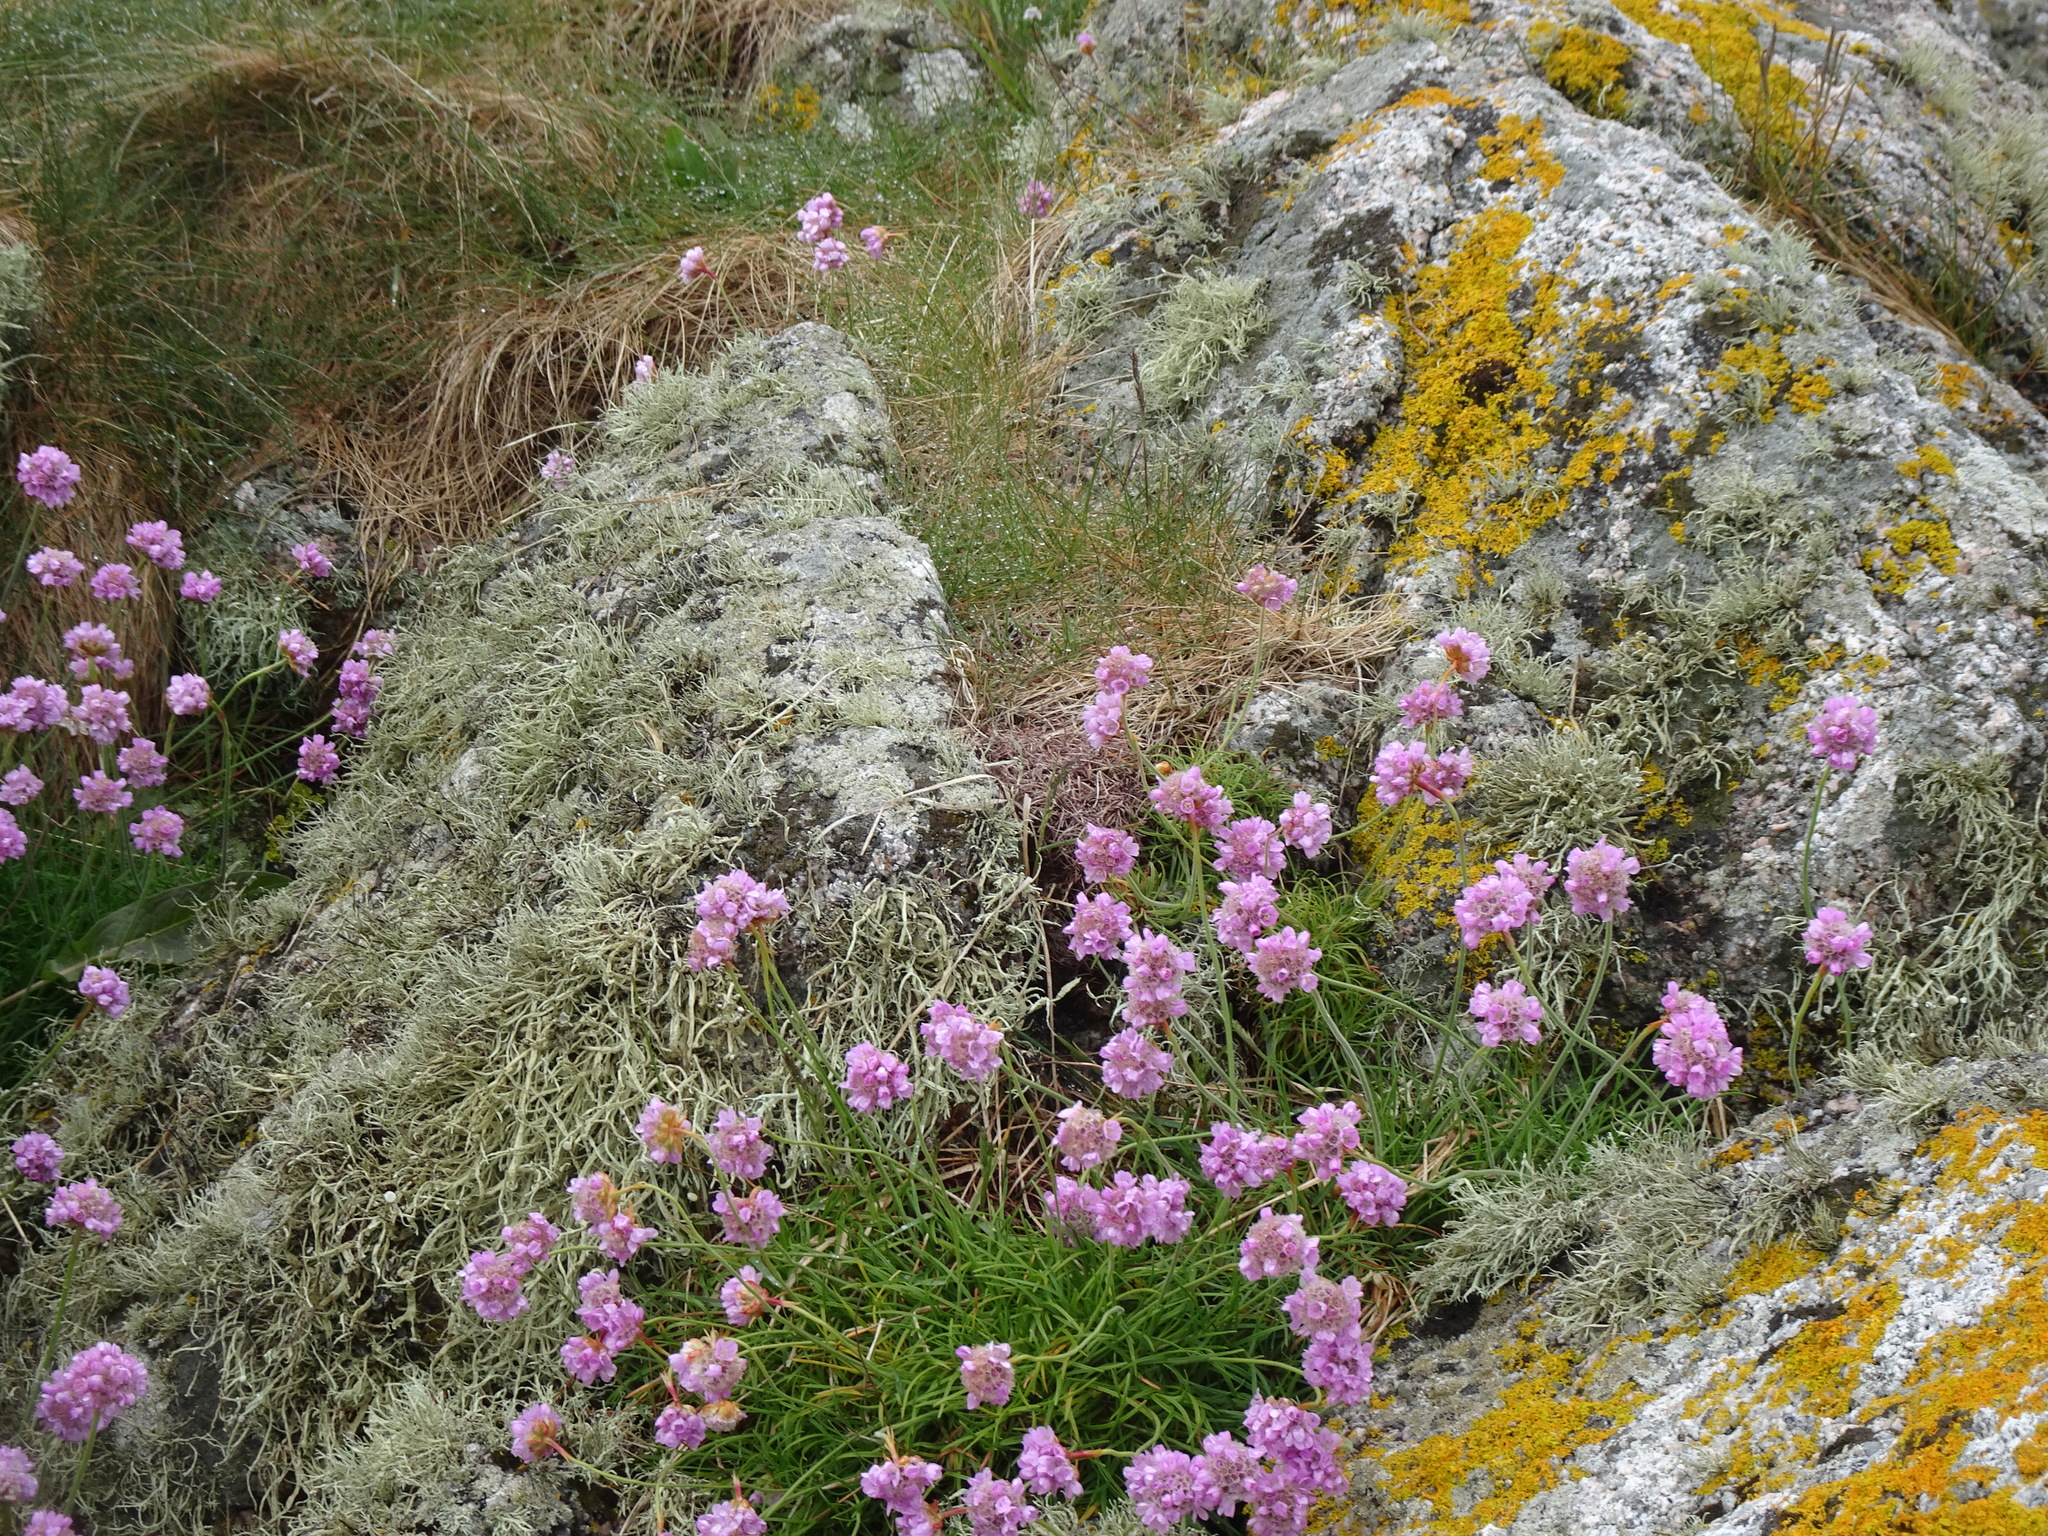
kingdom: Plantae
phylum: Tracheophyta
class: Magnoliopsida
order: Caryophyllales
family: Plumbaginaceae
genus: Armeria
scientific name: Armeria maritima
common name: Thrift
